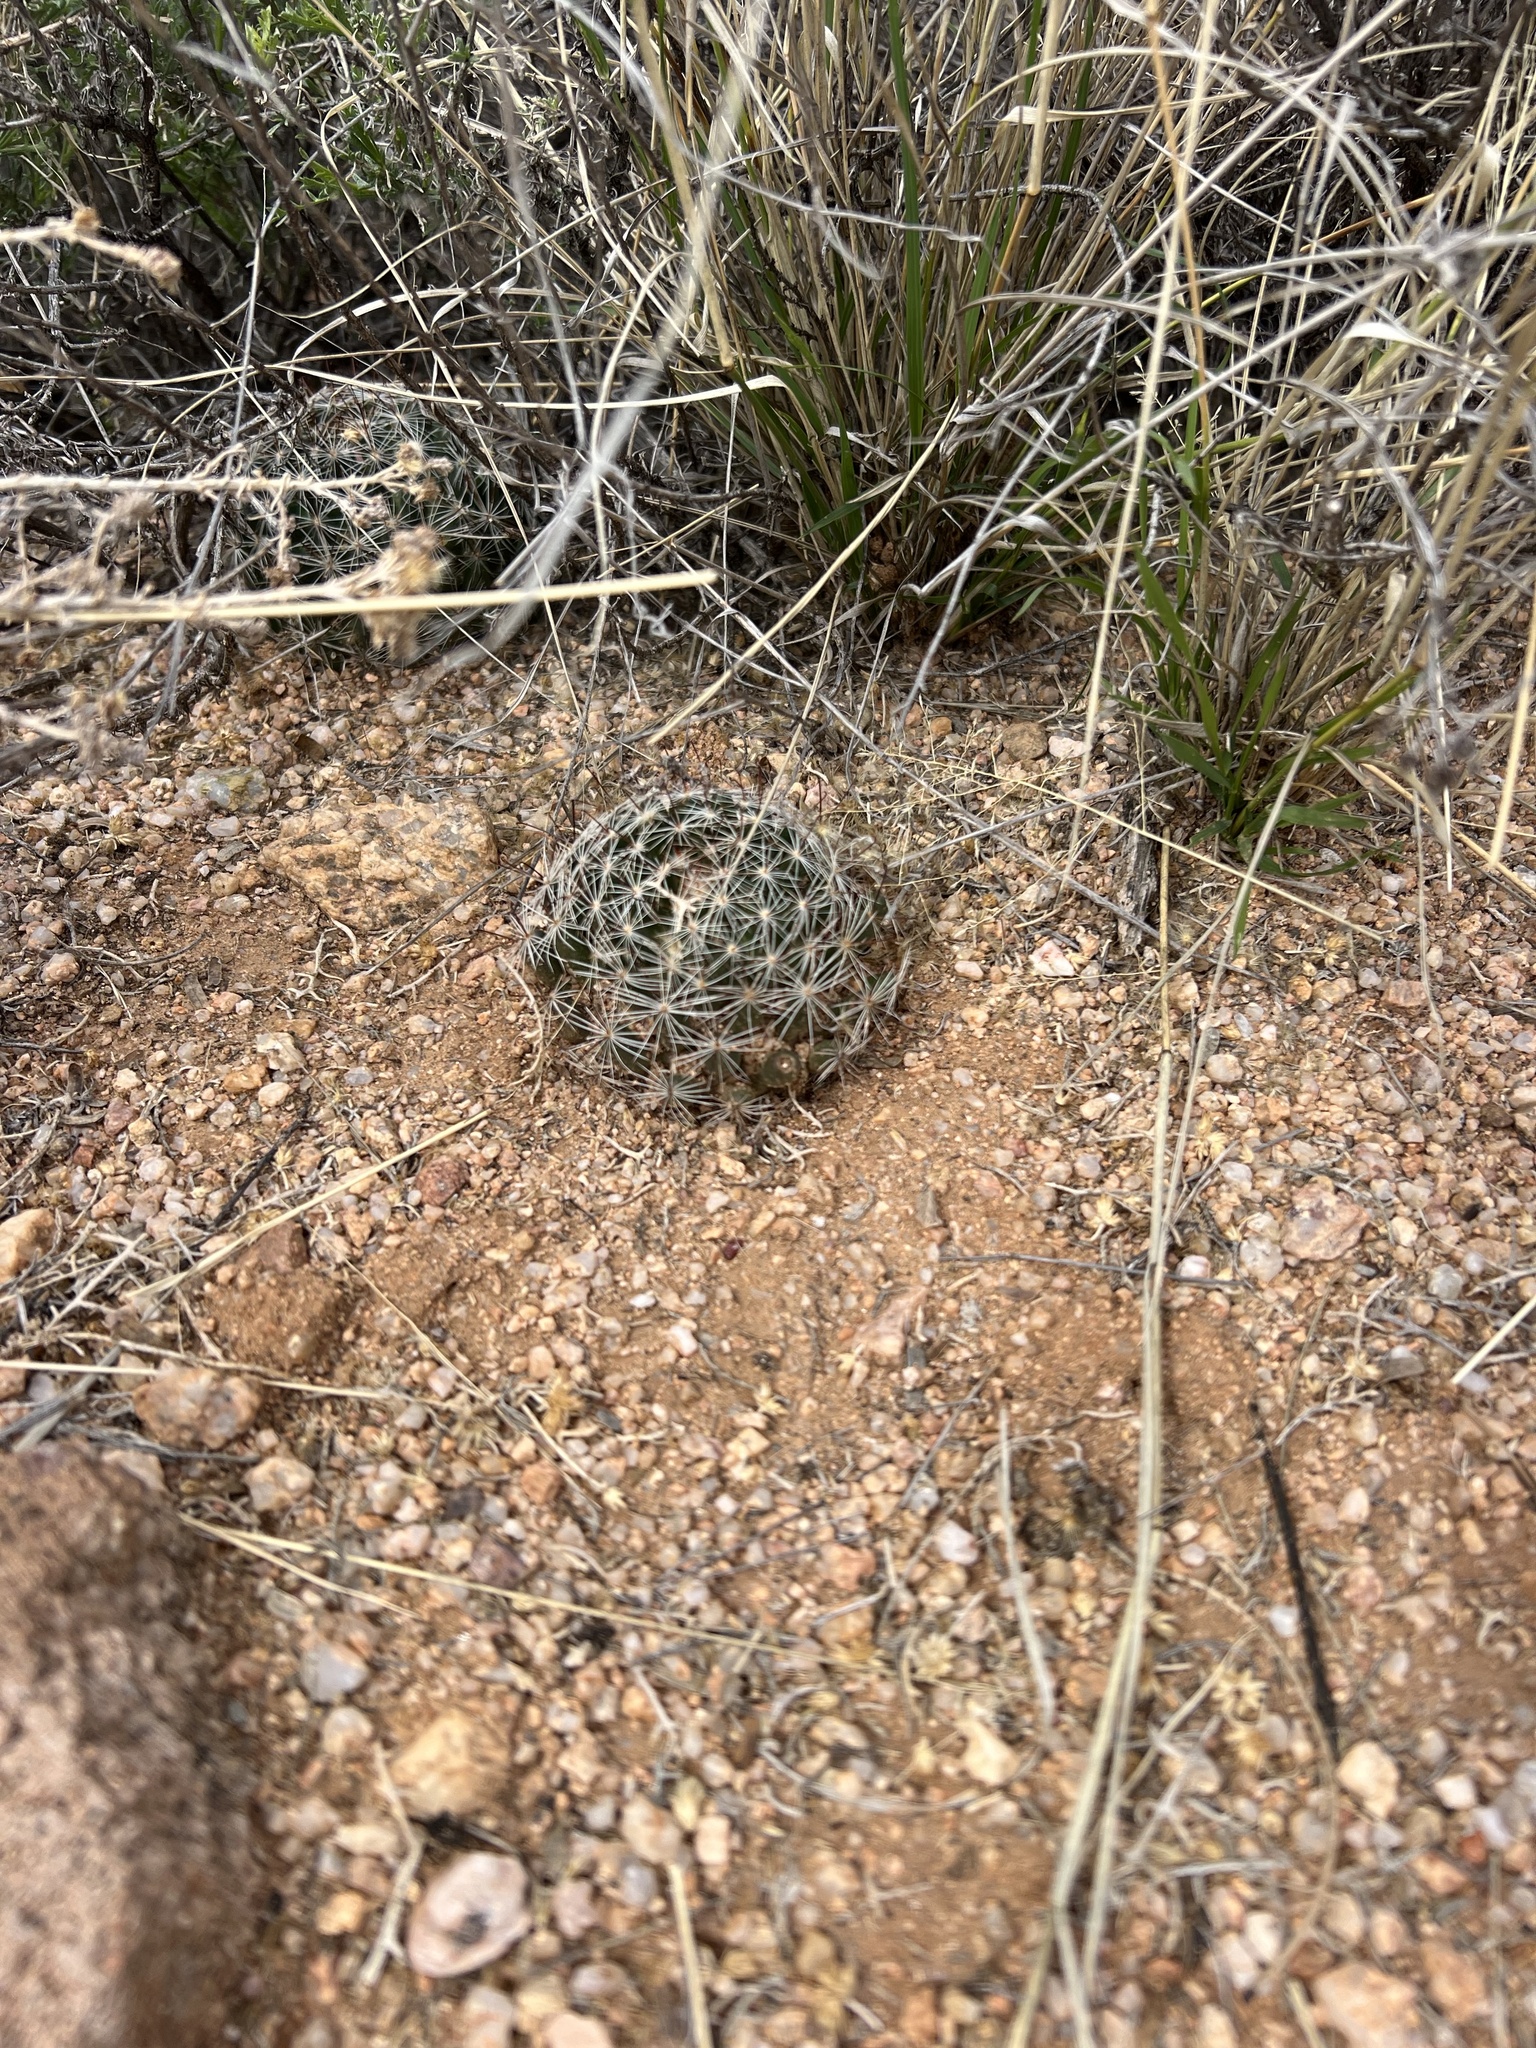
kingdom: Plantae
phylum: Tracheophyta
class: Magnoliopsida
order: Caryophyllales
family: Cactaceae
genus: Cochemiea
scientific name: Cochemiea wrightii
